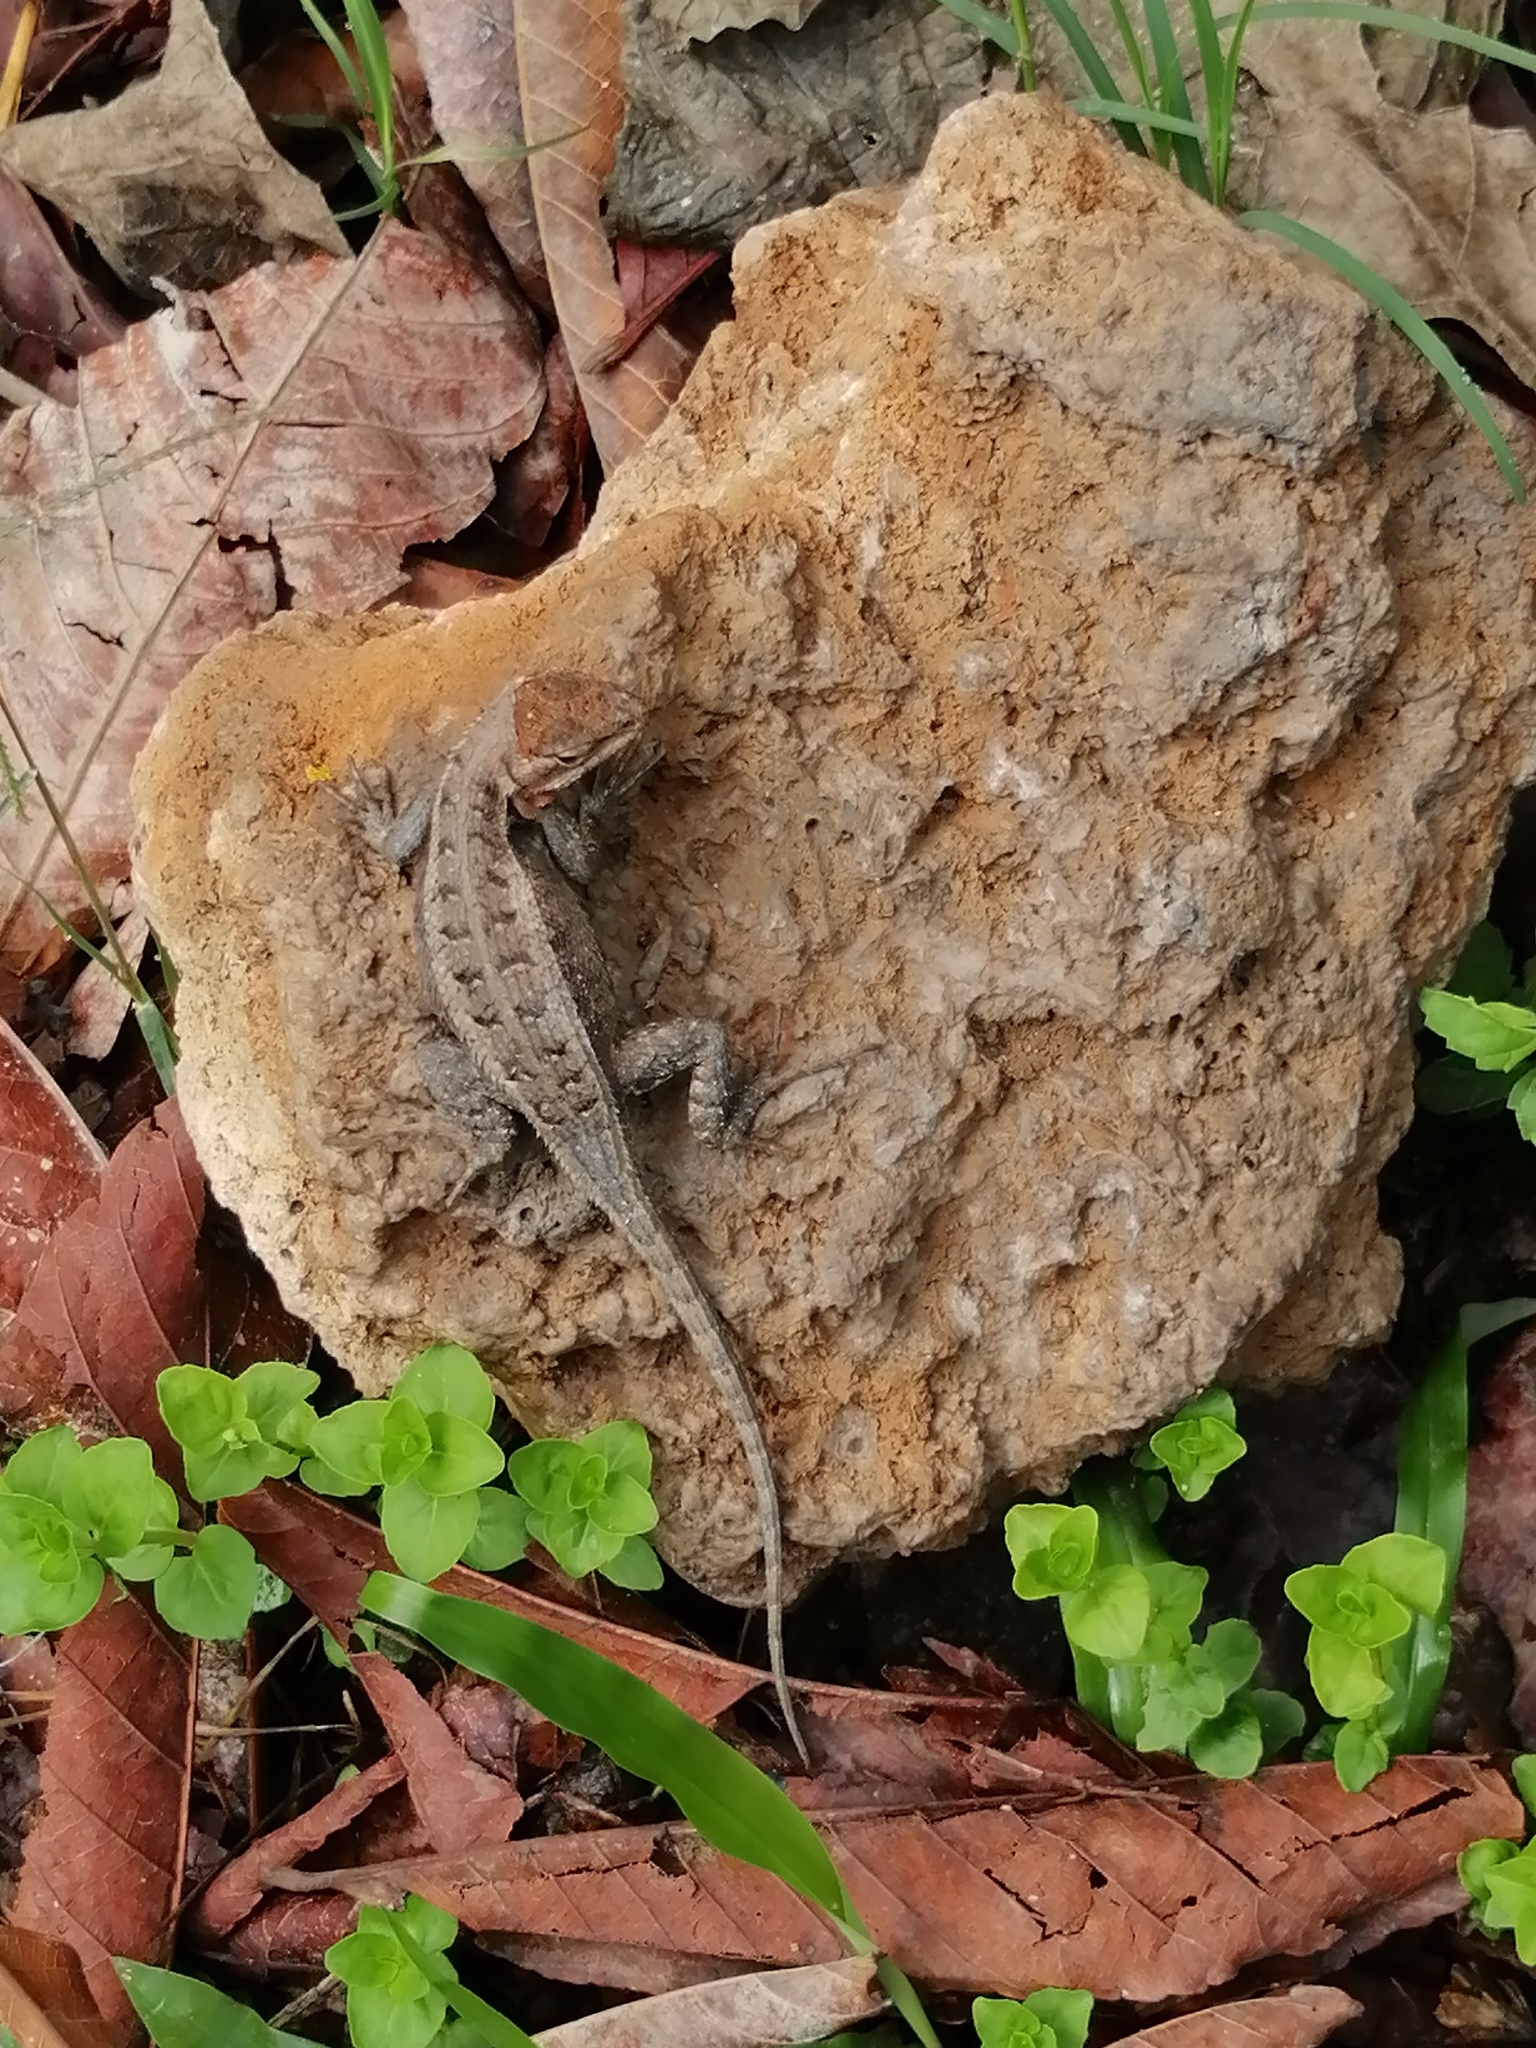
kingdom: Animalia
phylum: Chordata
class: Squamata
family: Phrynosomatidae
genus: Sceloporus
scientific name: Sceloporus variabilis
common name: Rosebelly lizard
